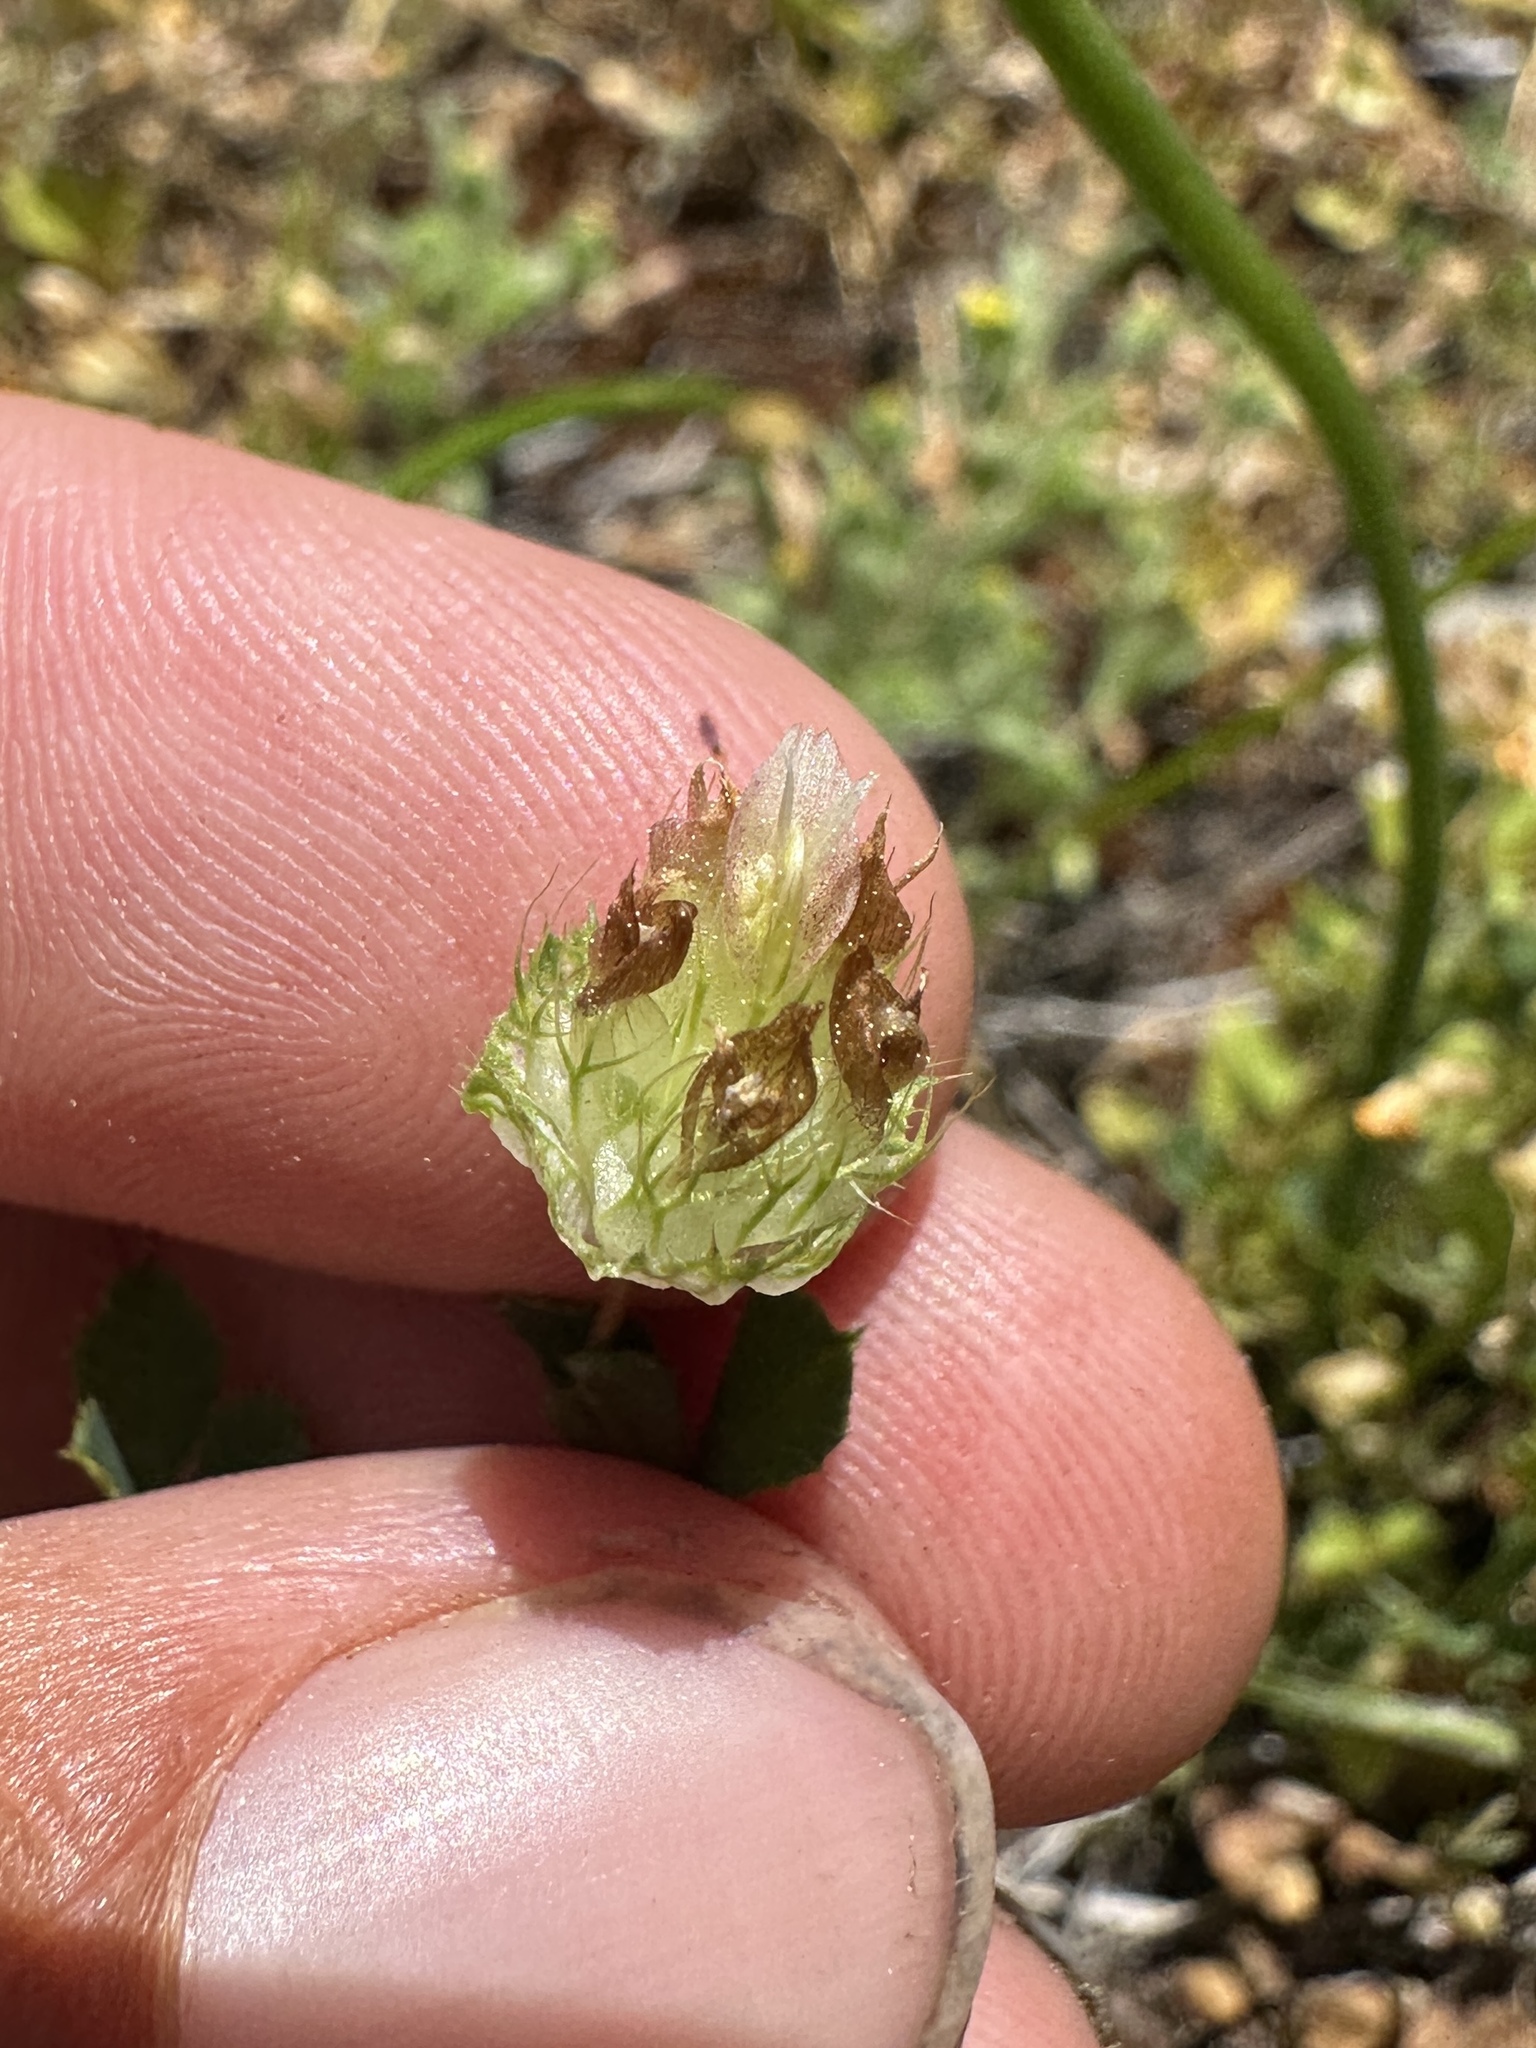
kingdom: Plantae
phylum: Tracheophyta
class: Magnoliopsida
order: Fabales
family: Fabaceae
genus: Trifolium
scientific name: Trifolium cyathiferum
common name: Bowl clover
